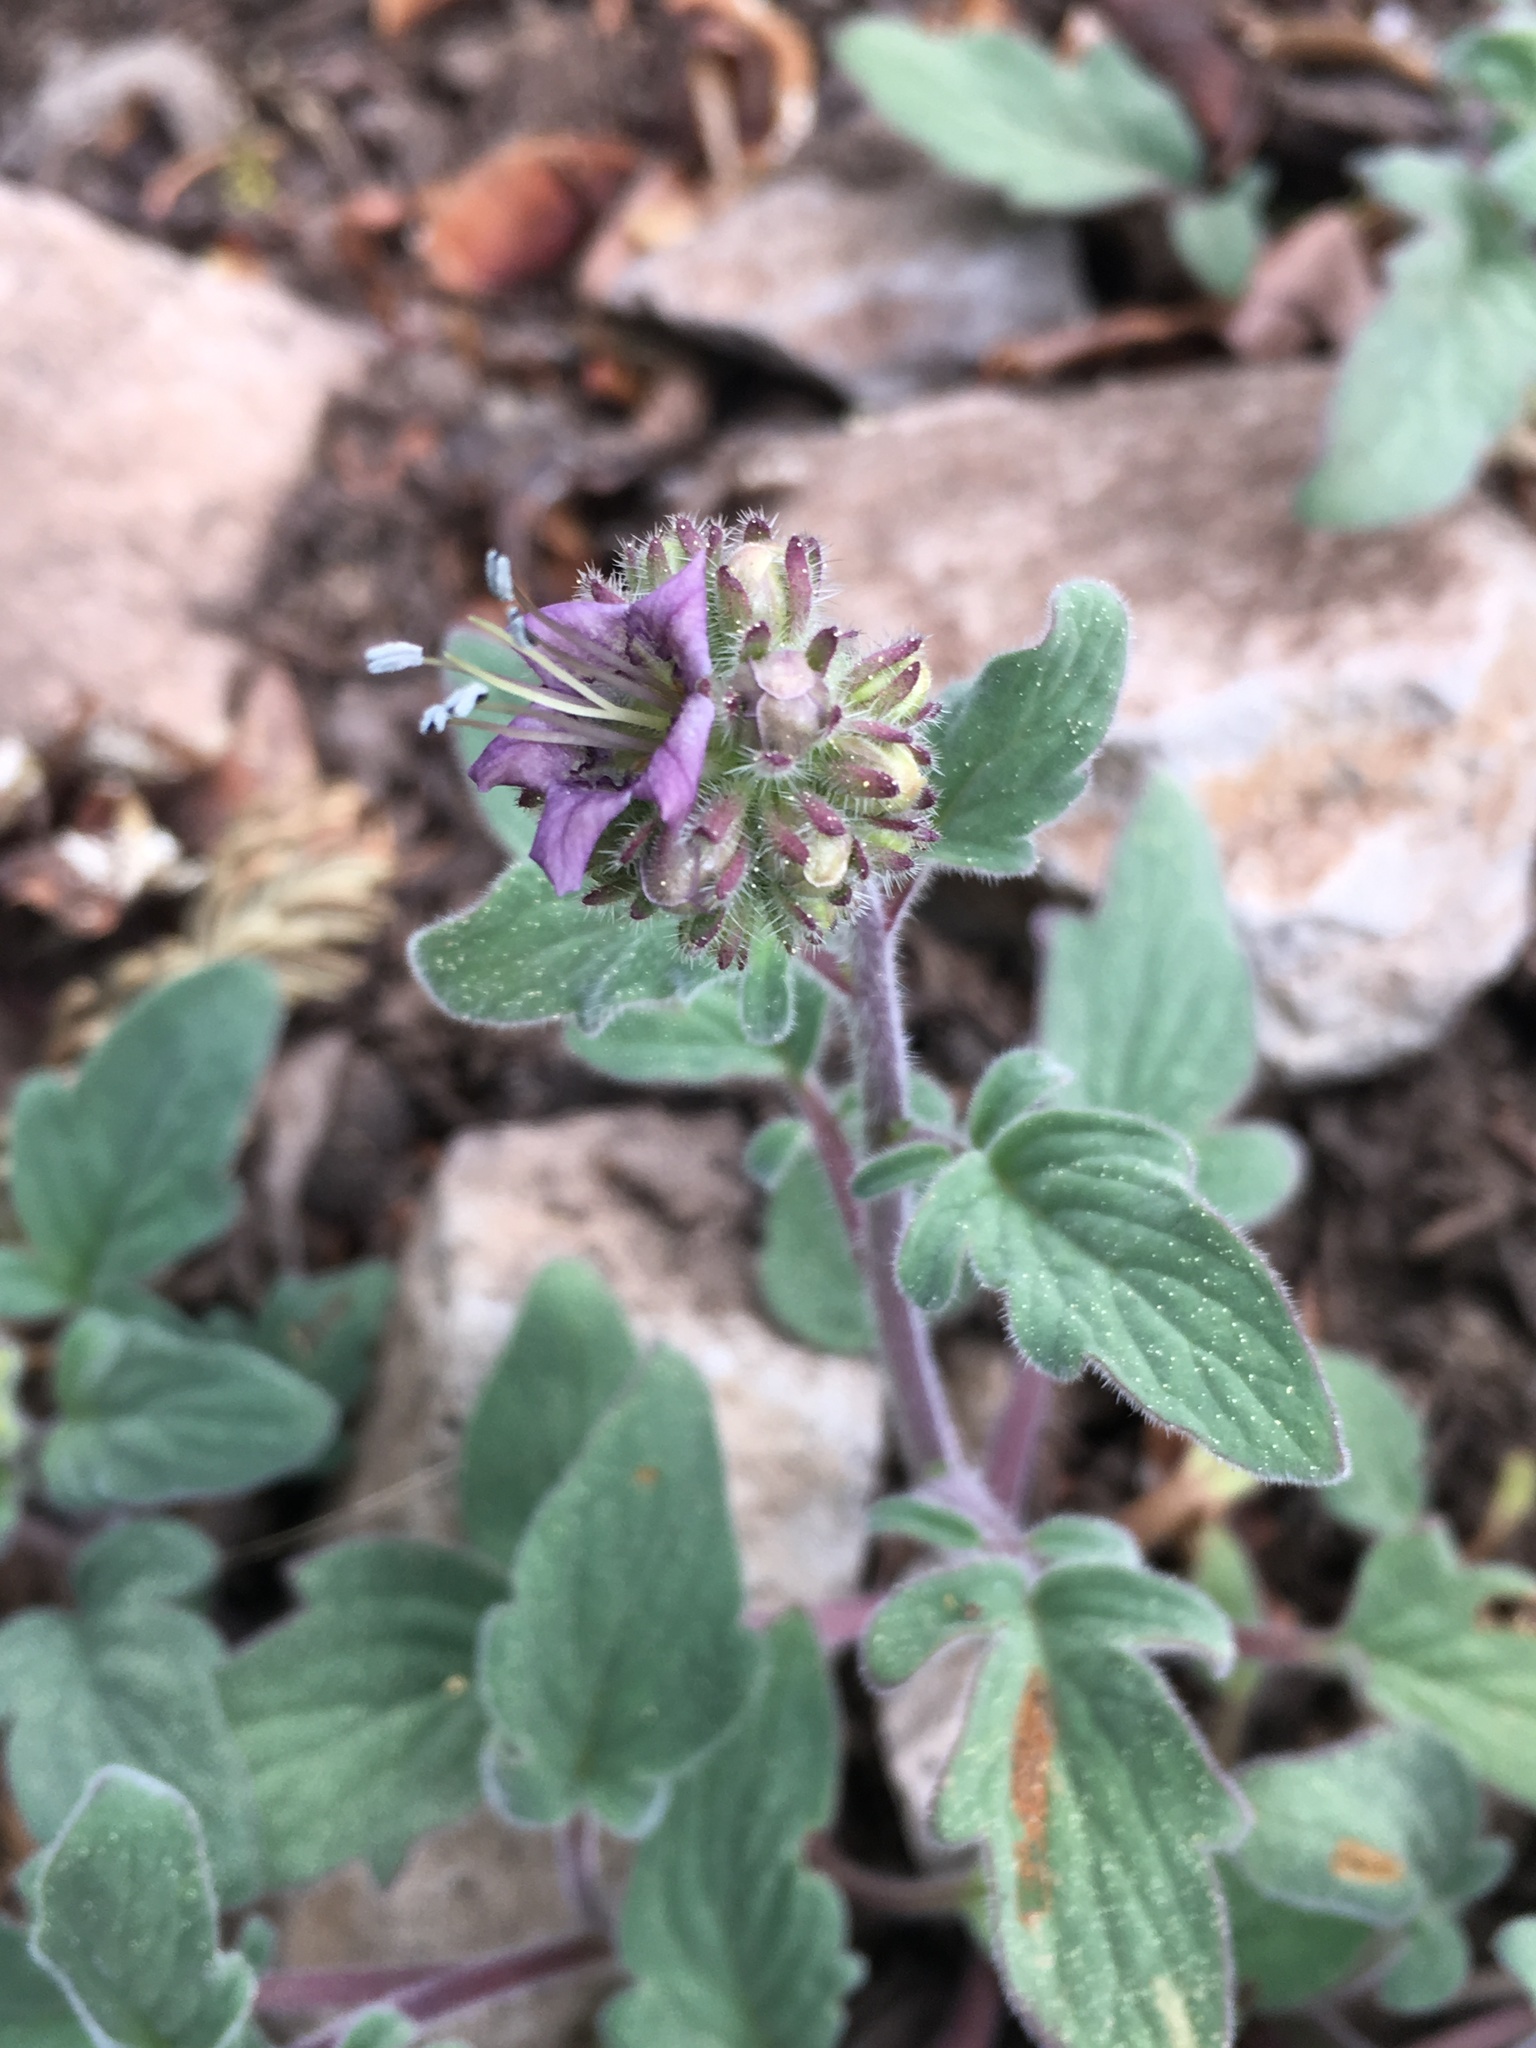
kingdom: Plantae
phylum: Tracheophyta
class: Magnoliopsida
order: Boraginales
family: Hydrophyllaceae
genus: Phacelia
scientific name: Phacelia hydrophylloides
